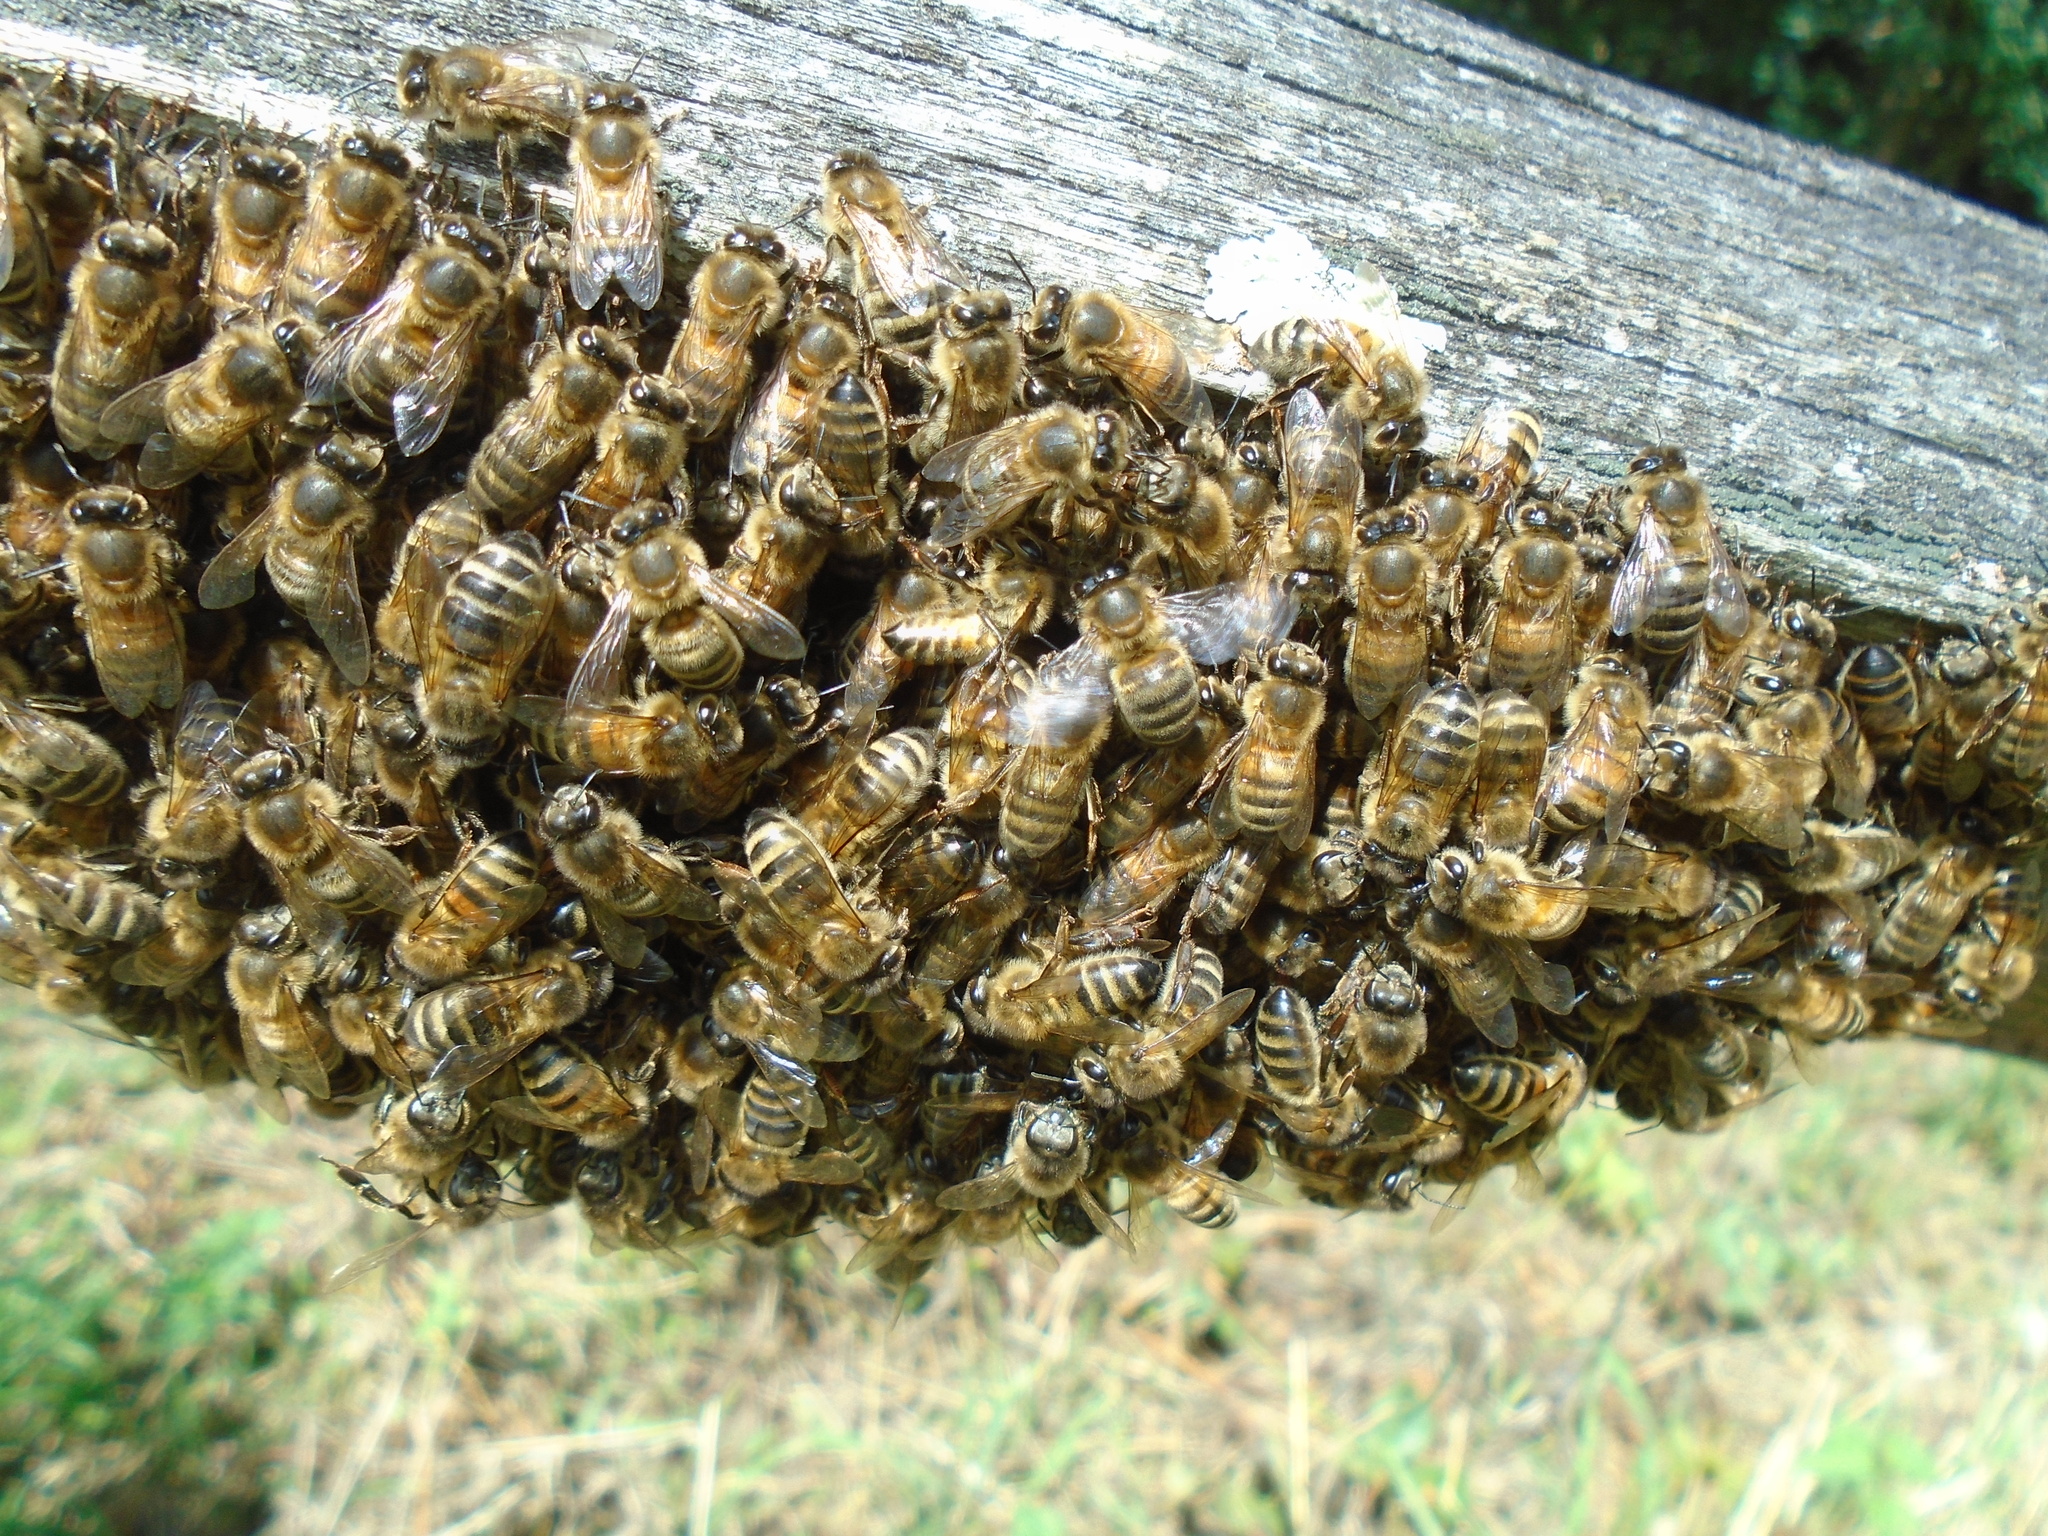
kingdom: Animalia
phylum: Arthropoda
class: Insecta
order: Hymenoptera
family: Apidae
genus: Apis
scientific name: Apis mellifera
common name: Honey bee
